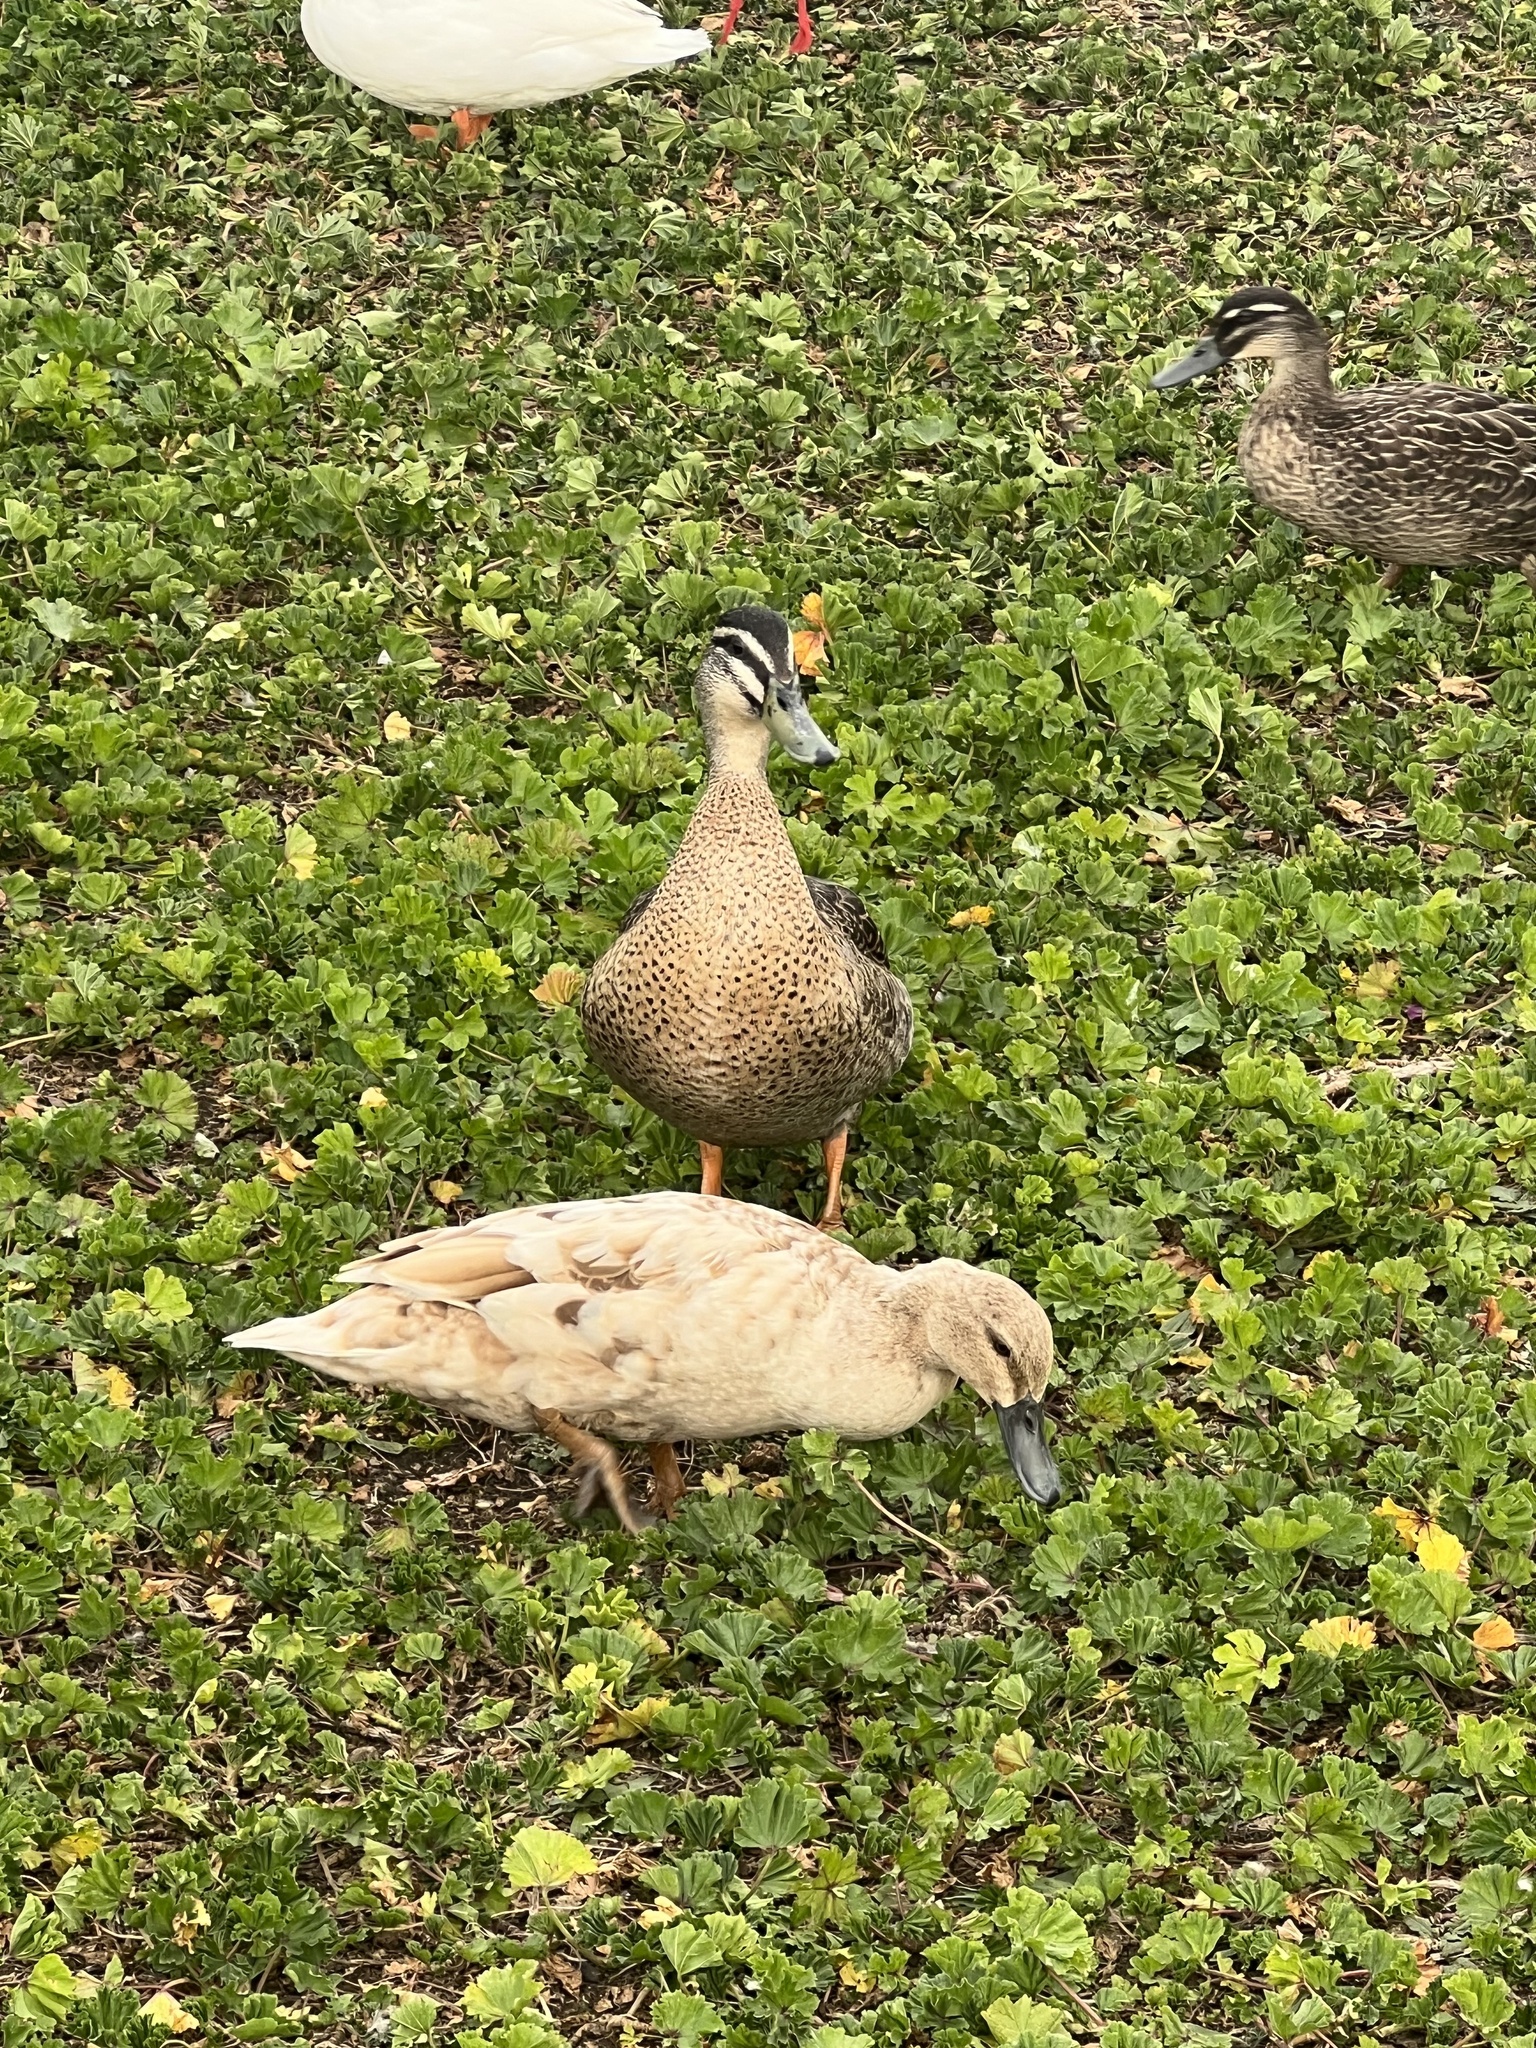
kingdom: Animalia
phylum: Chordata
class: Aves
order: Anseriformes
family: Anatidae
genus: Anas
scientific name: Anas
